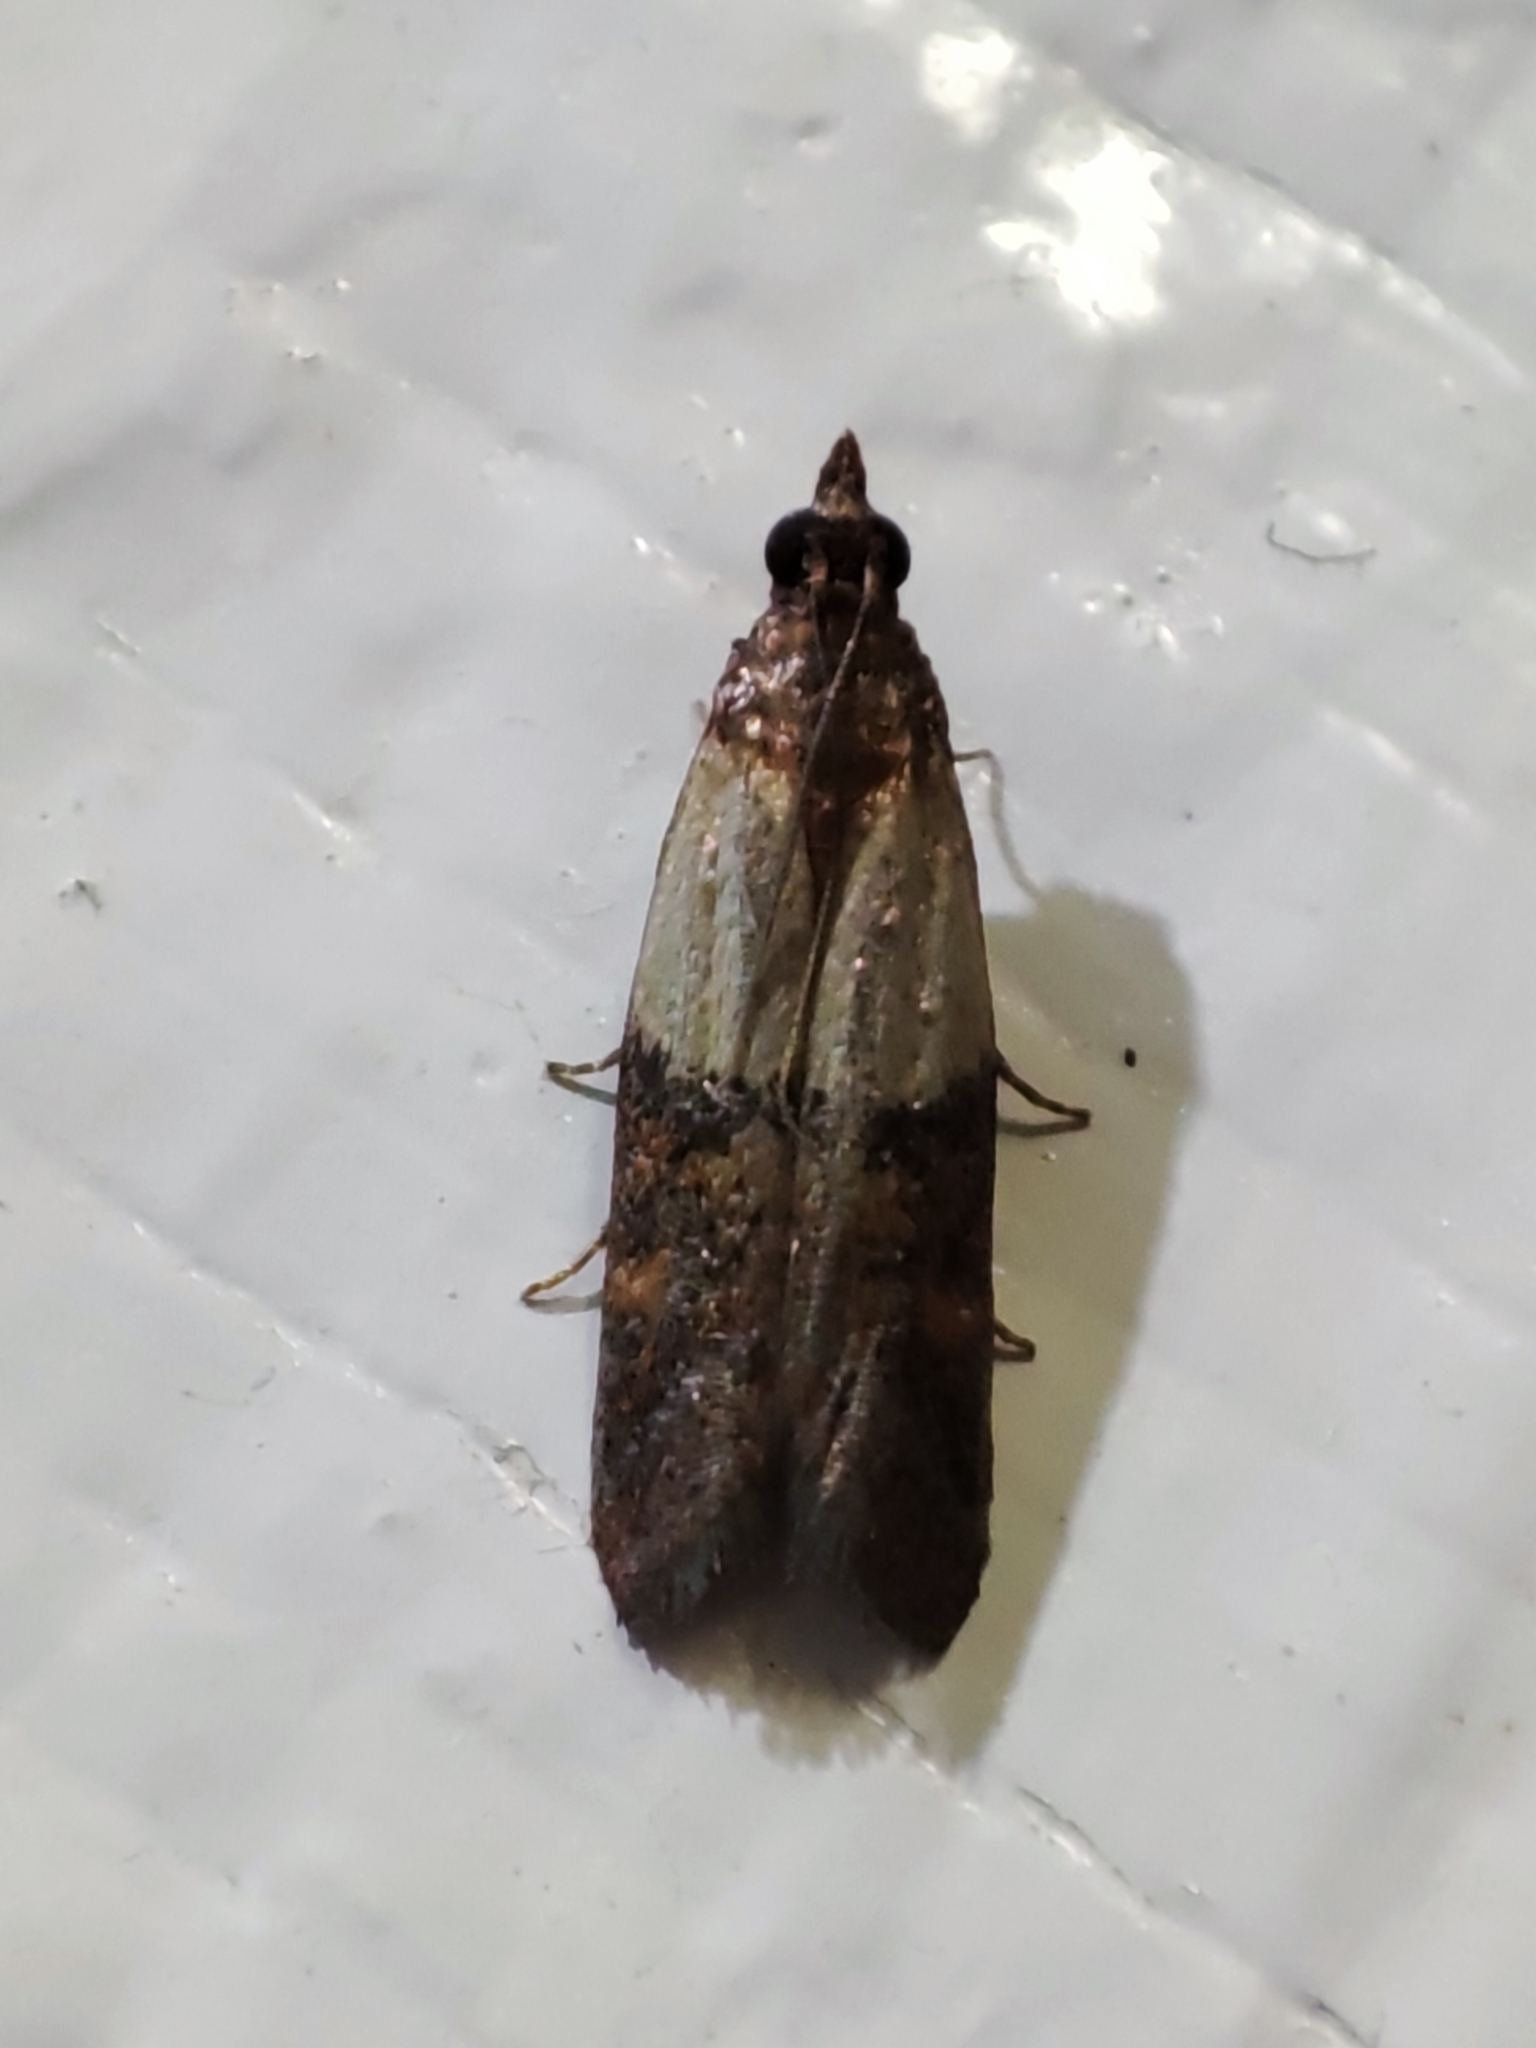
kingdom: Animalia
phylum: Arthropoda
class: Insecta
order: Lepidoptera
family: Pyralidae
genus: Plodia
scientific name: Plodia interpunctella
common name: Indian meal moth
